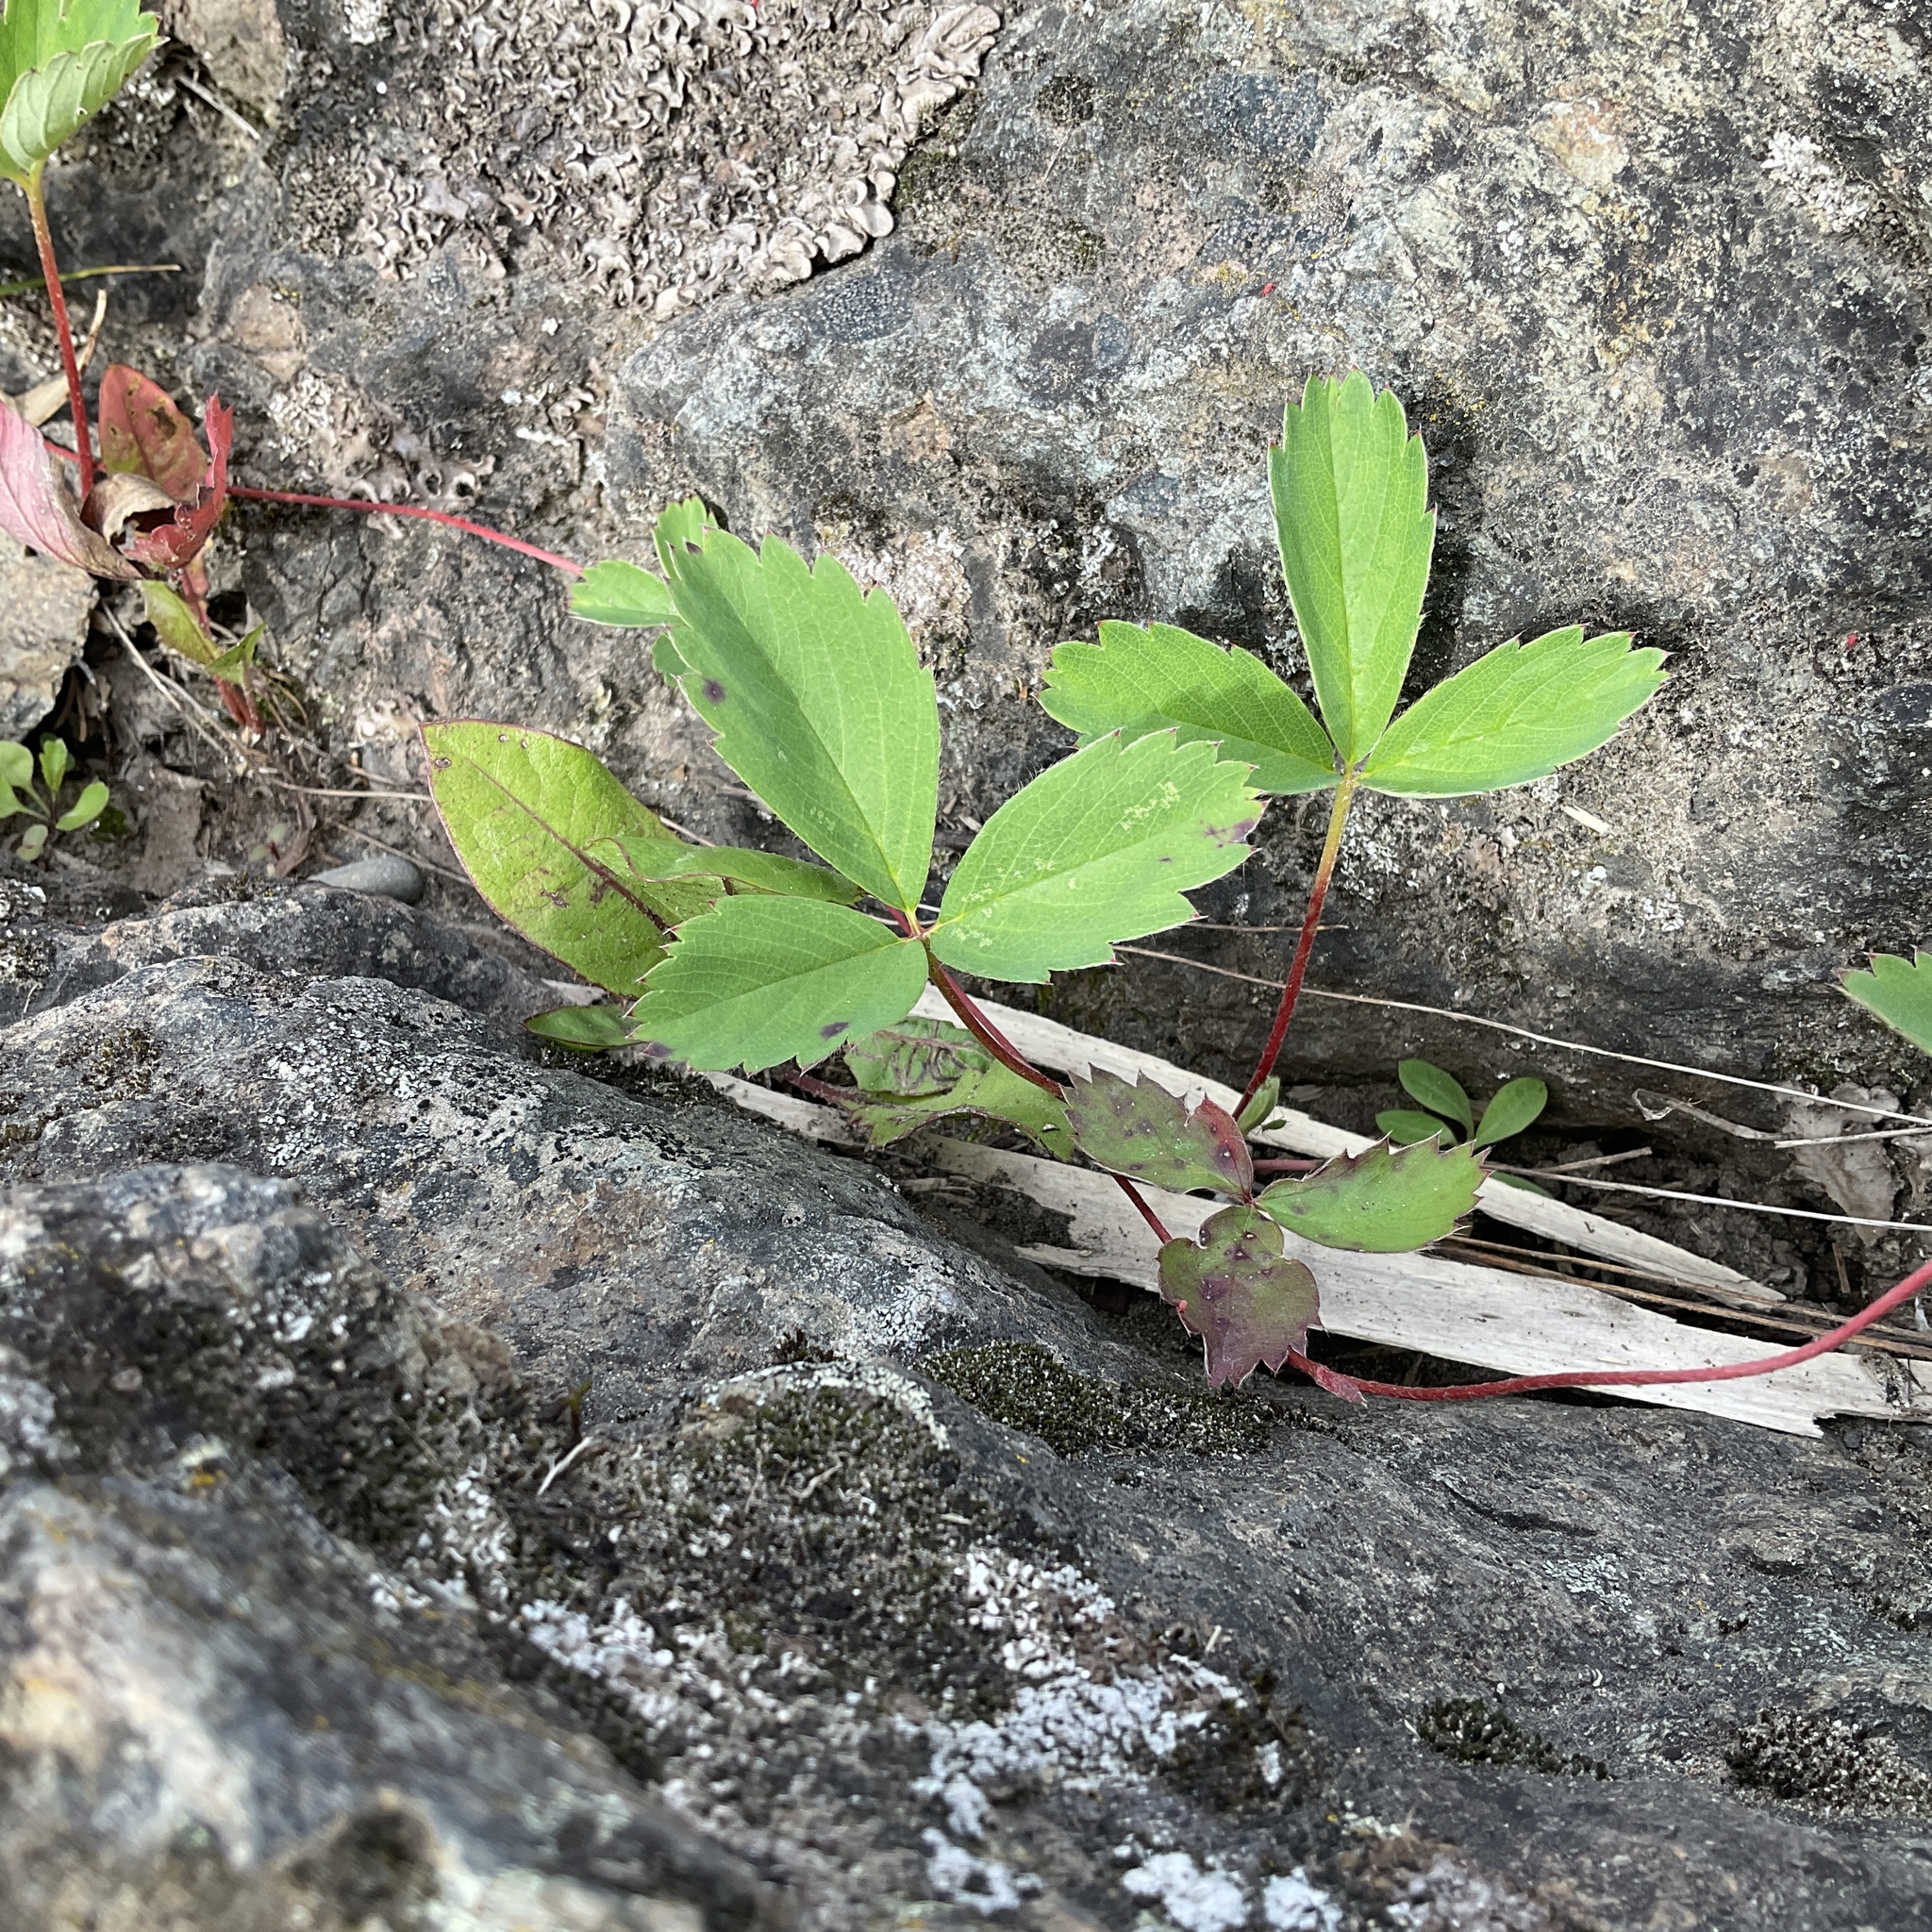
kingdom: Plantae
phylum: Tracheophyta
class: Magnoliopsida
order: Rosales
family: Rosaceae
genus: Fragaria
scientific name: Fragaria virginiana
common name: Thickleaved wild strawberry
